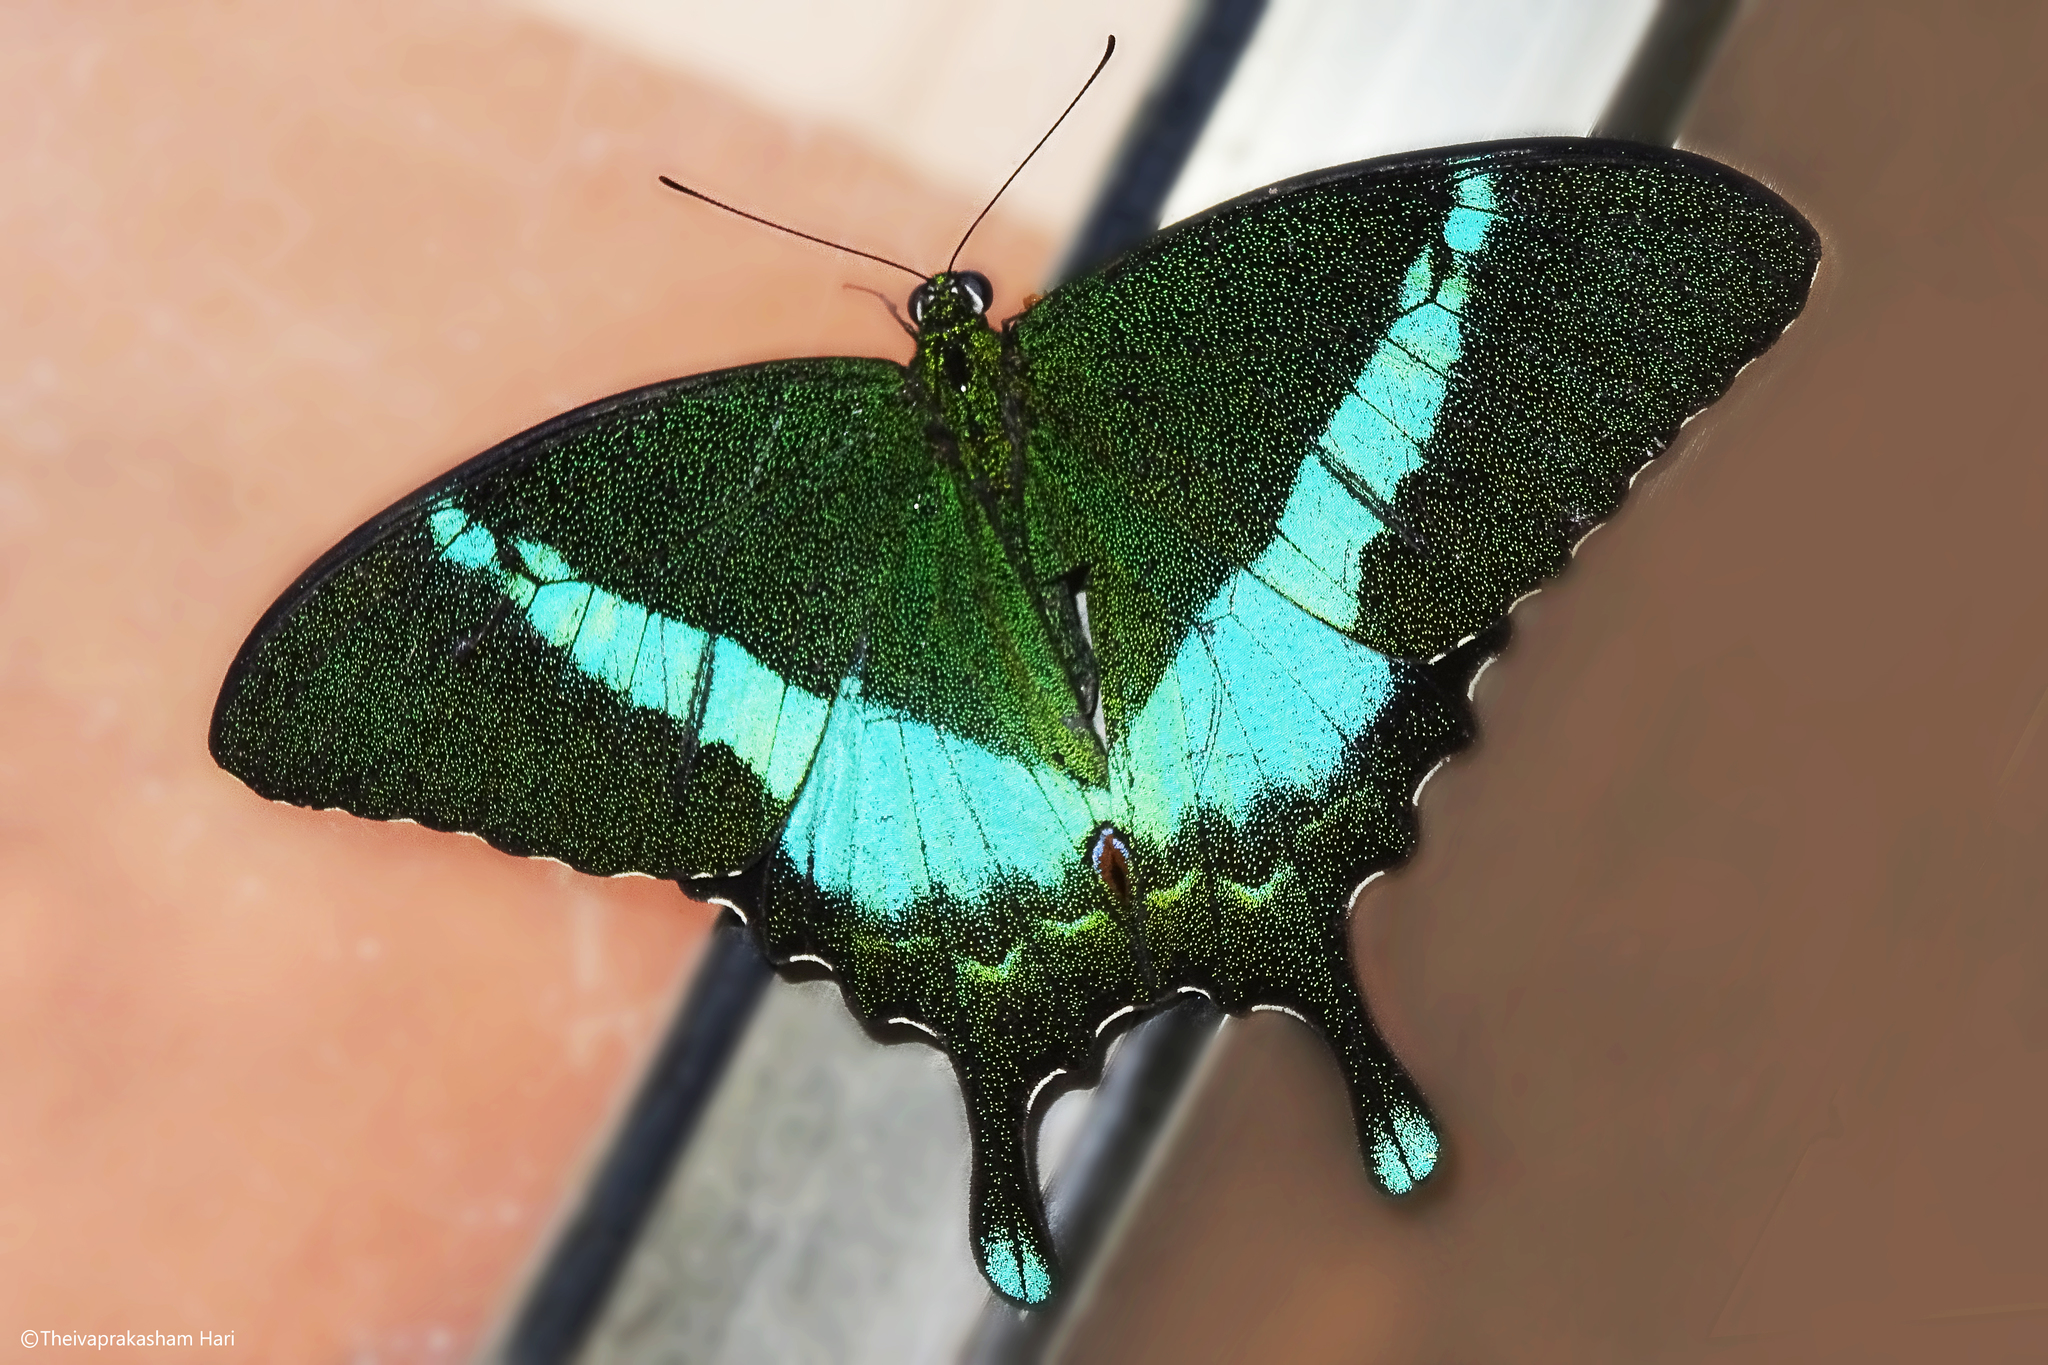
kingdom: Animalia
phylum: Arthropoda
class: Insecta
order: Lepidoptera
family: Papilionidae
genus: Papilio
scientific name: Papilio crino
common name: Common banded peacock
